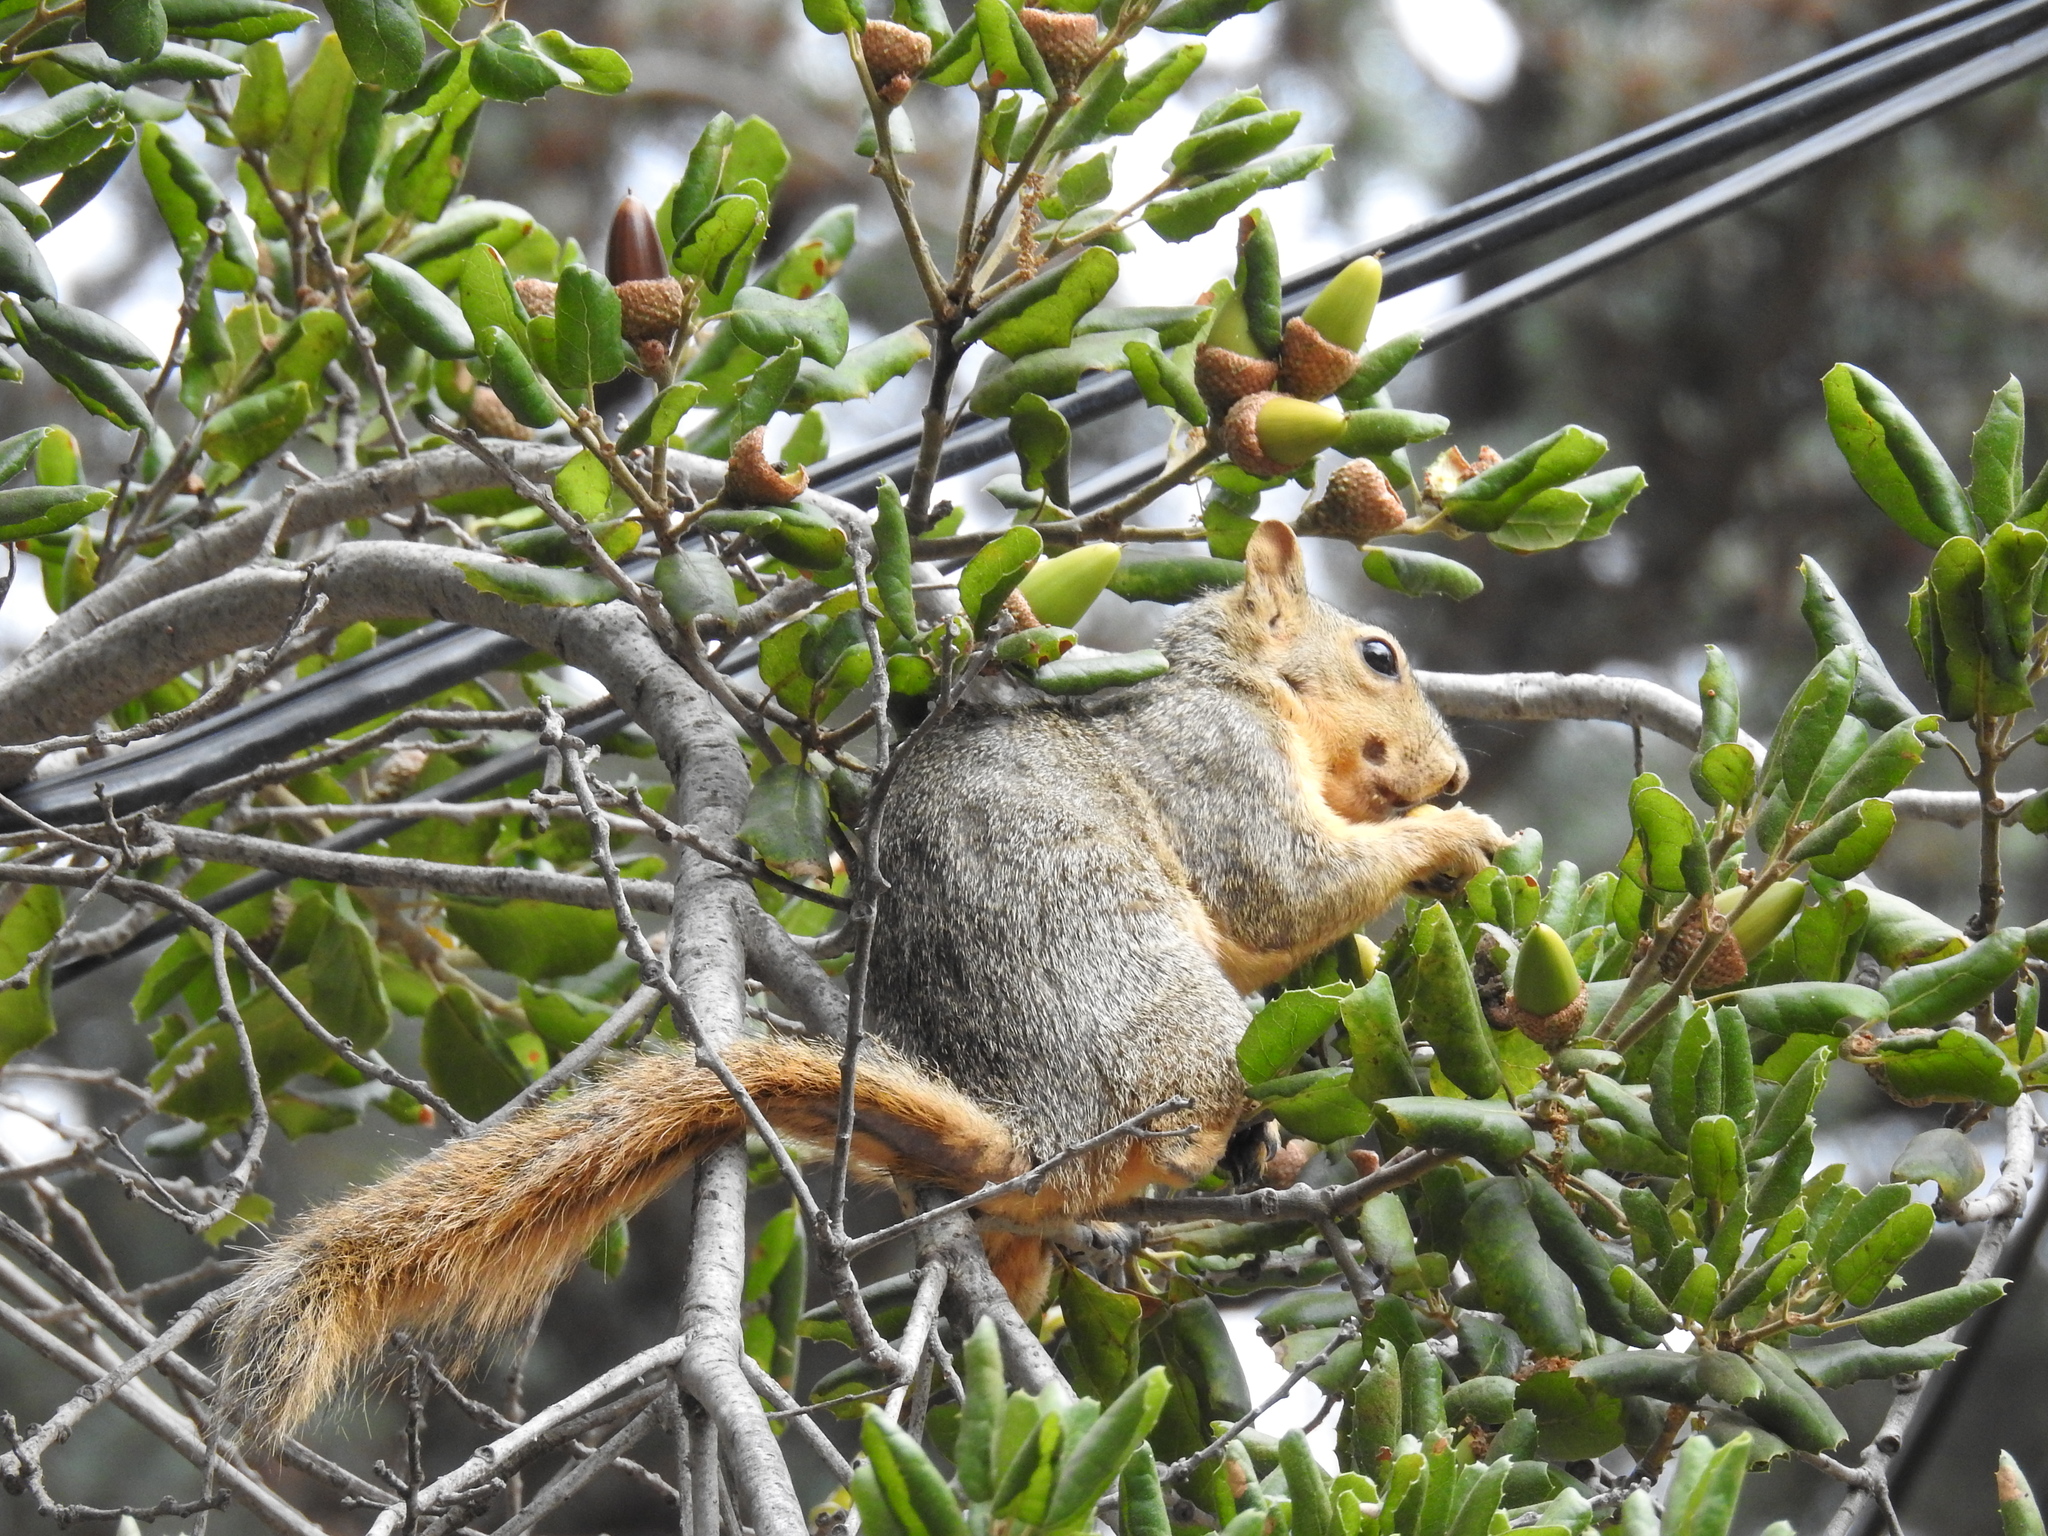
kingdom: Animalia
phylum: Chordata
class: Mammalia
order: Rodentia
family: Sciuridae
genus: Sciurus
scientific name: Sciurus niger
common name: Fox squirrel
